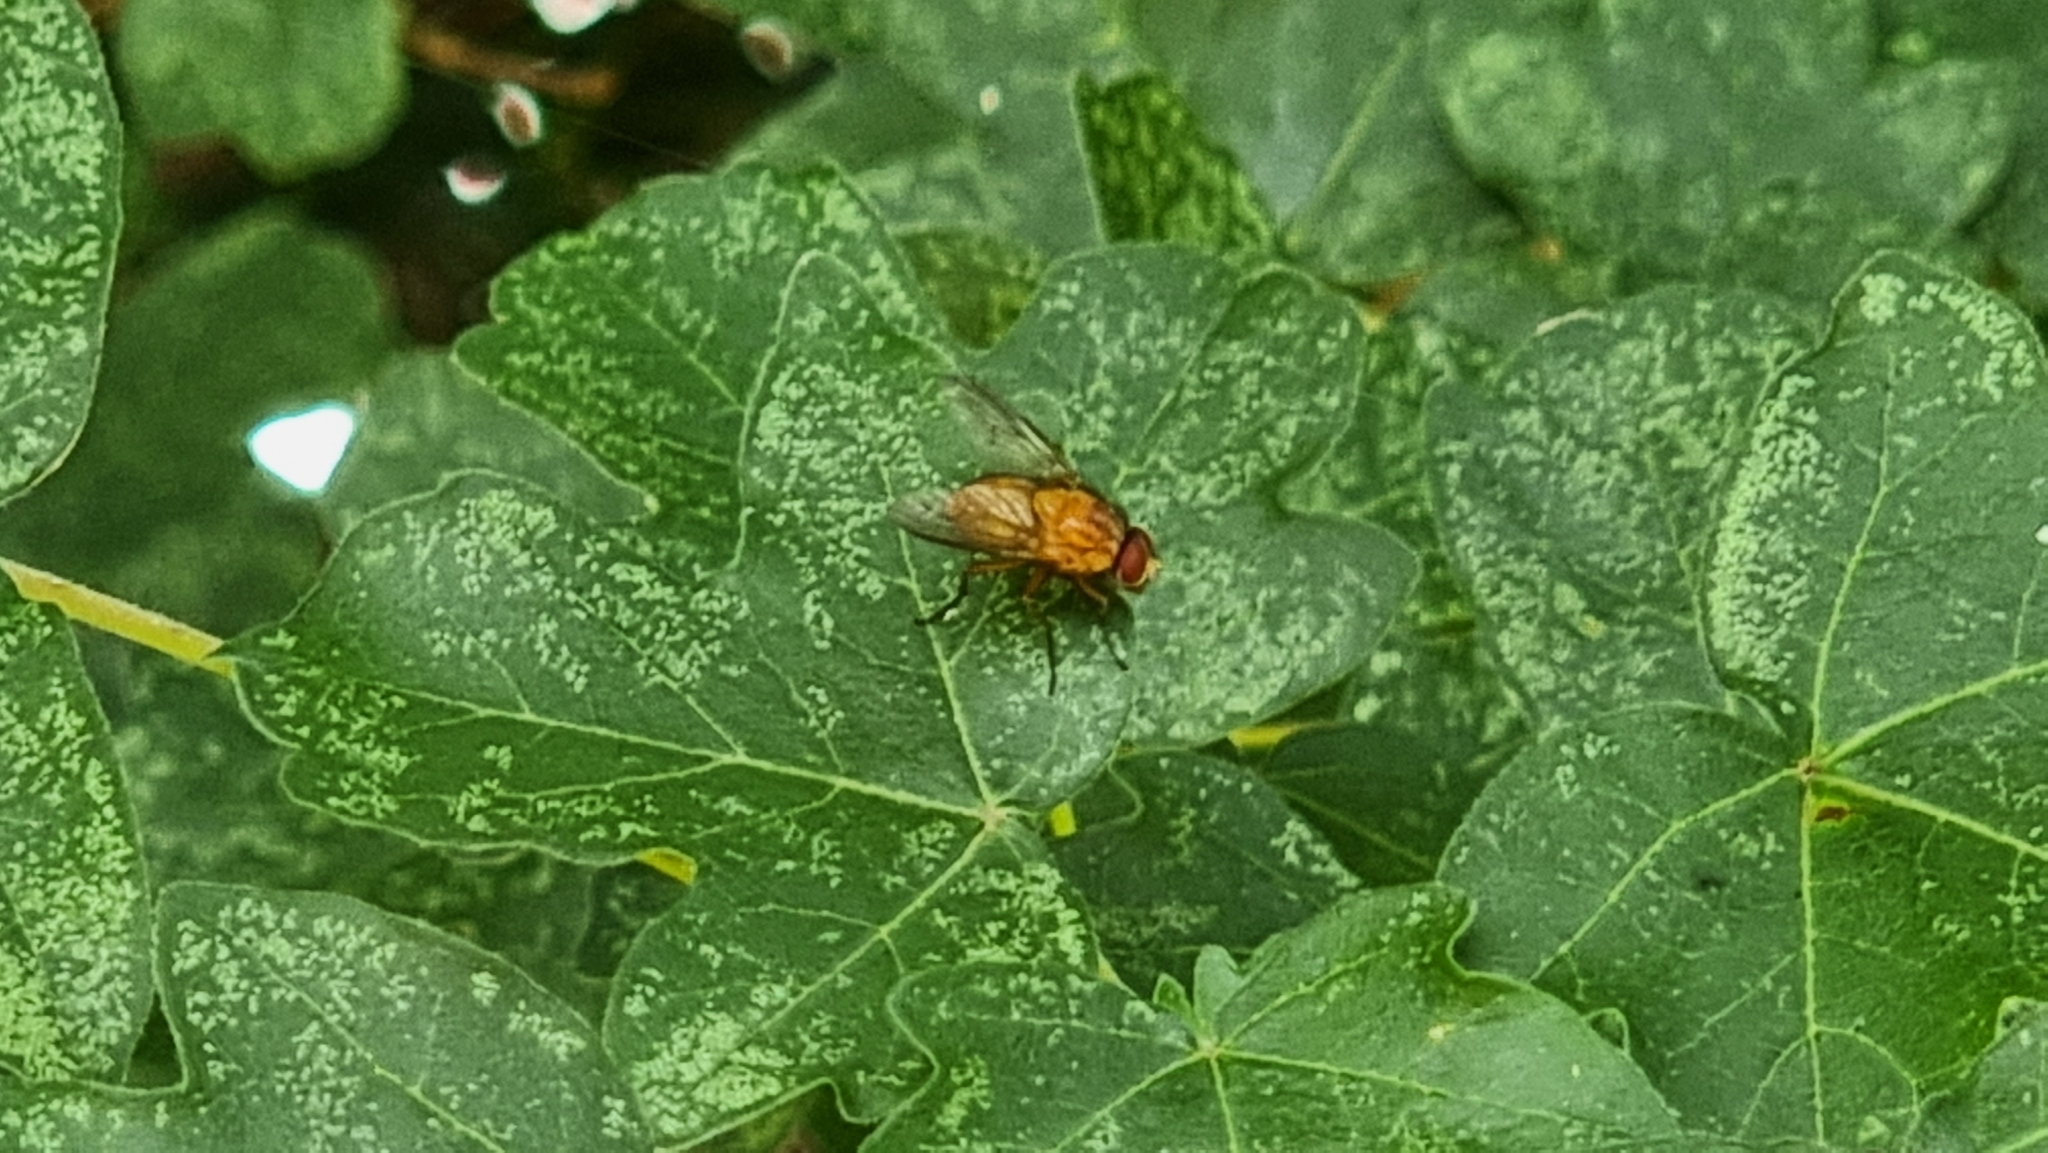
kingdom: Animalia
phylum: Arthropoda
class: Insecta
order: Diptera
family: Muscidae
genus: Phaonia
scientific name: Phaonia pallida
